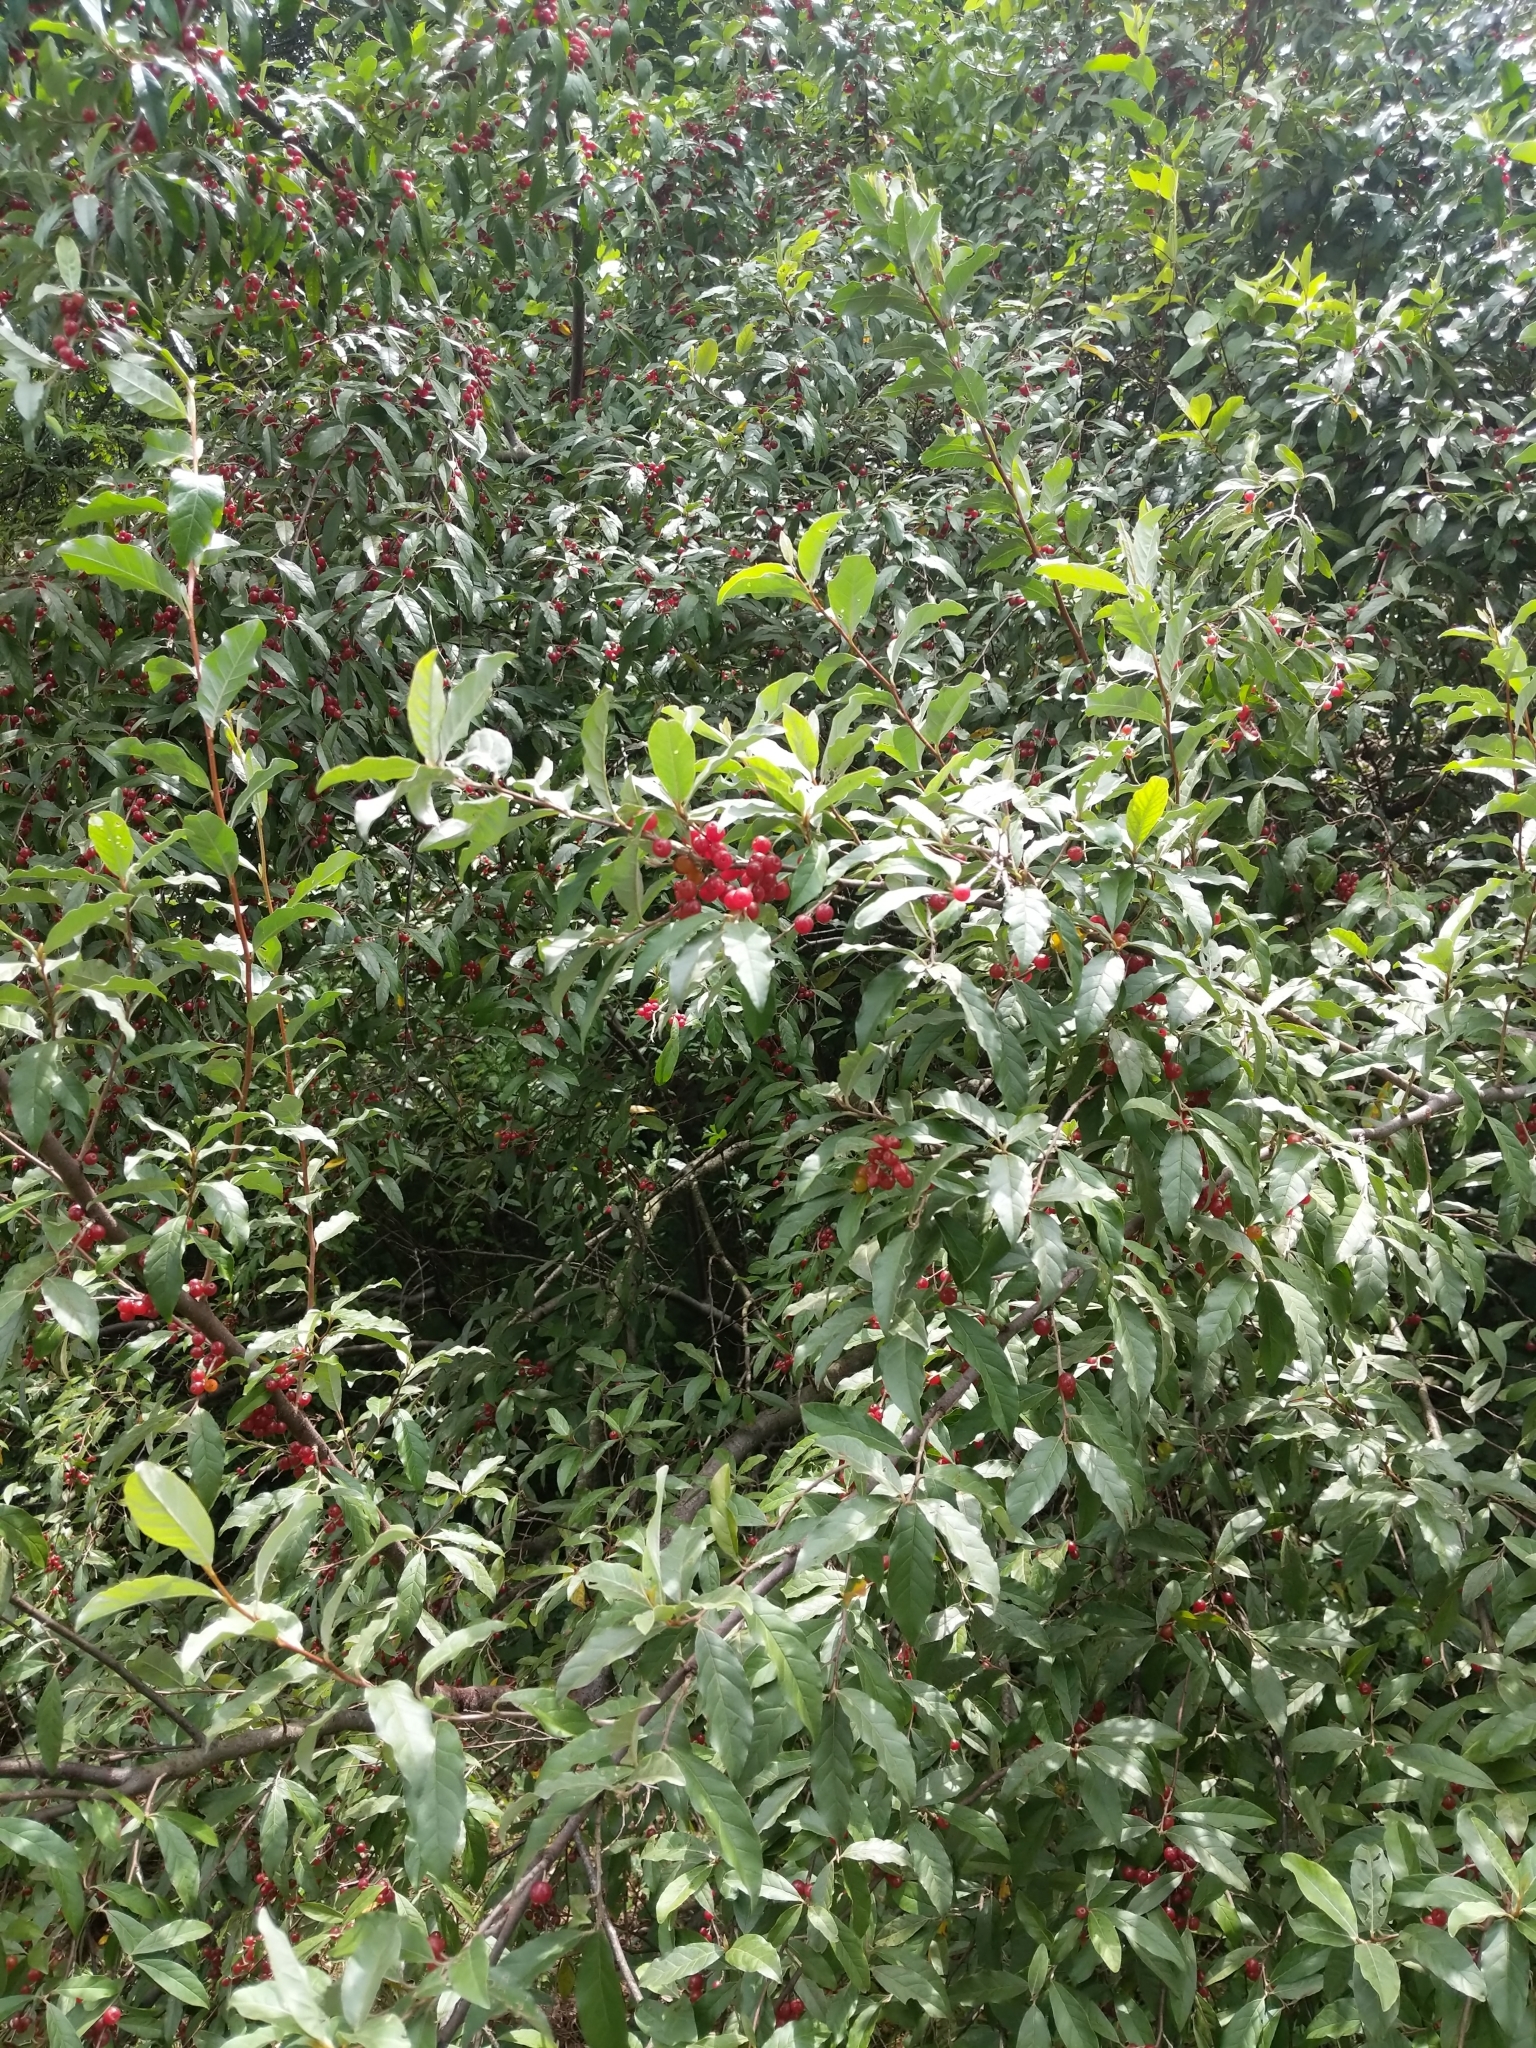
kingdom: Plantae
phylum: Tracheophyta
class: Magnoliopsida
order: Rosales
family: Elaeagnaceae
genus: Elaeagnus
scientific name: Elaeagnus umbellata
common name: Autumn olive
